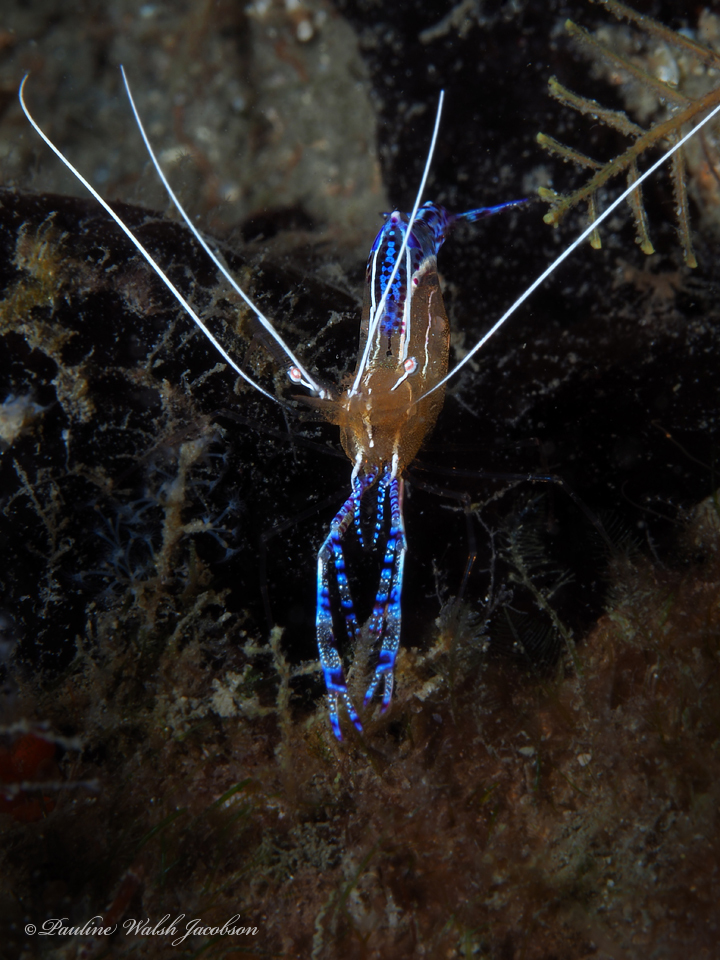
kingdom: Animalia
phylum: Arthropoda
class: Malacostraca
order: Decapoda
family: Palaemonidae
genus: Ancylomenes
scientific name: Ancylomenes pedersoni
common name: Pederson's cleaning shrimp
